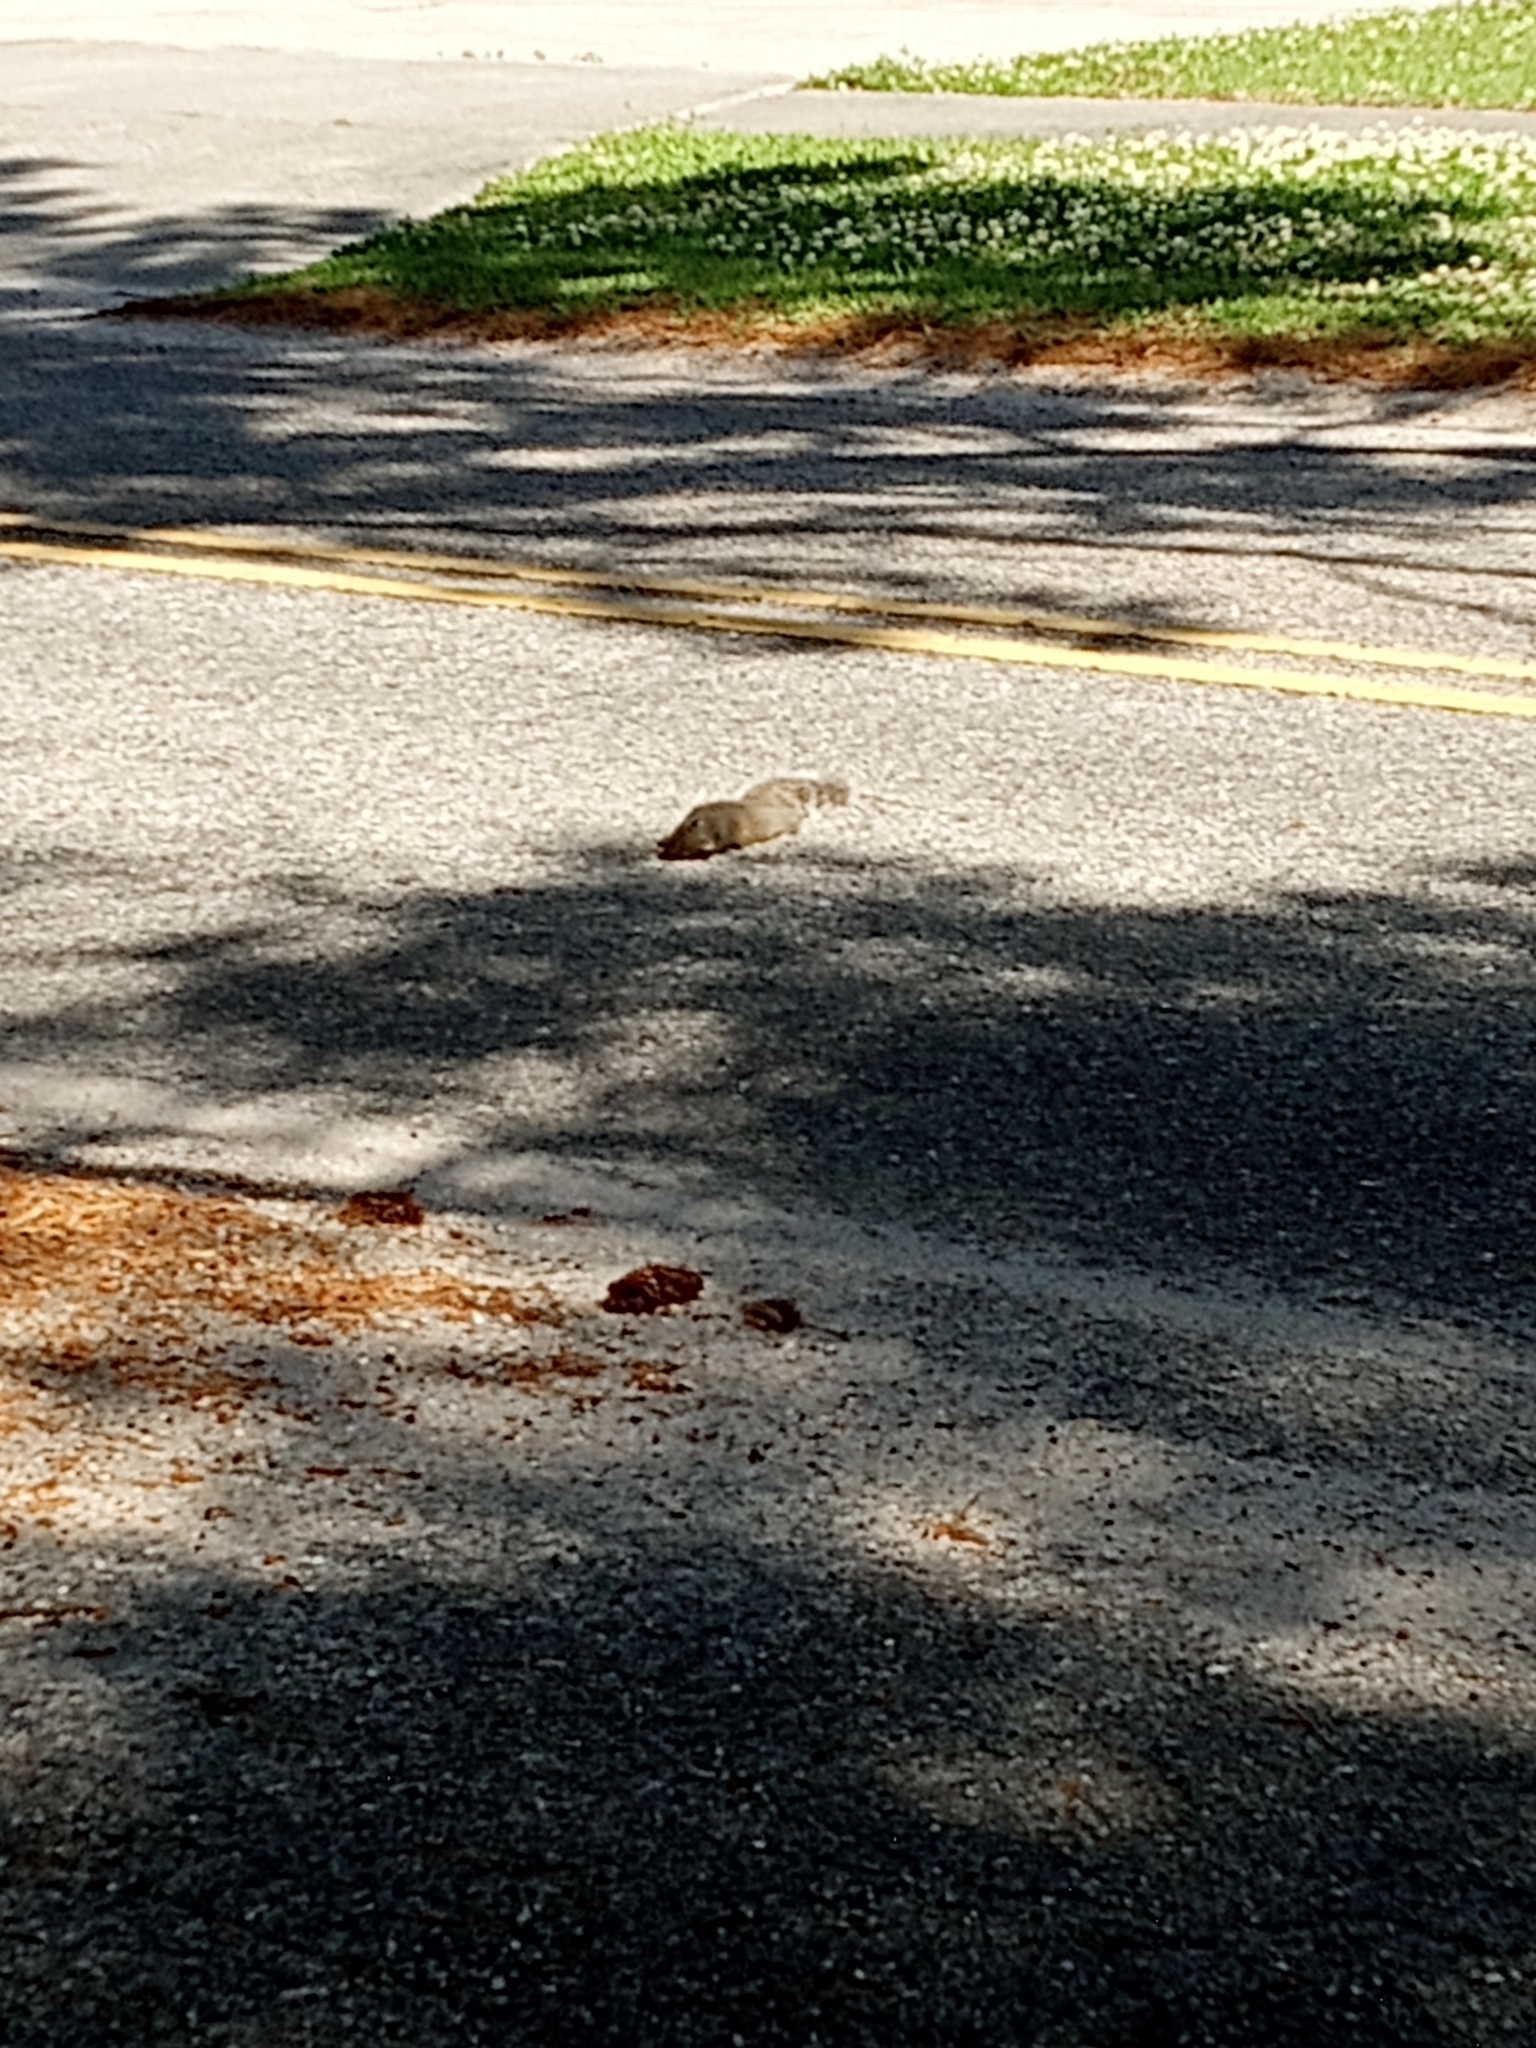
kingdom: Animalia
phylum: Chordata
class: Mammalia
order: Rodentia
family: Sciuridae
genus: Sciurus
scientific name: Sciurus carolinensis
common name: Eastern gray squirrel
